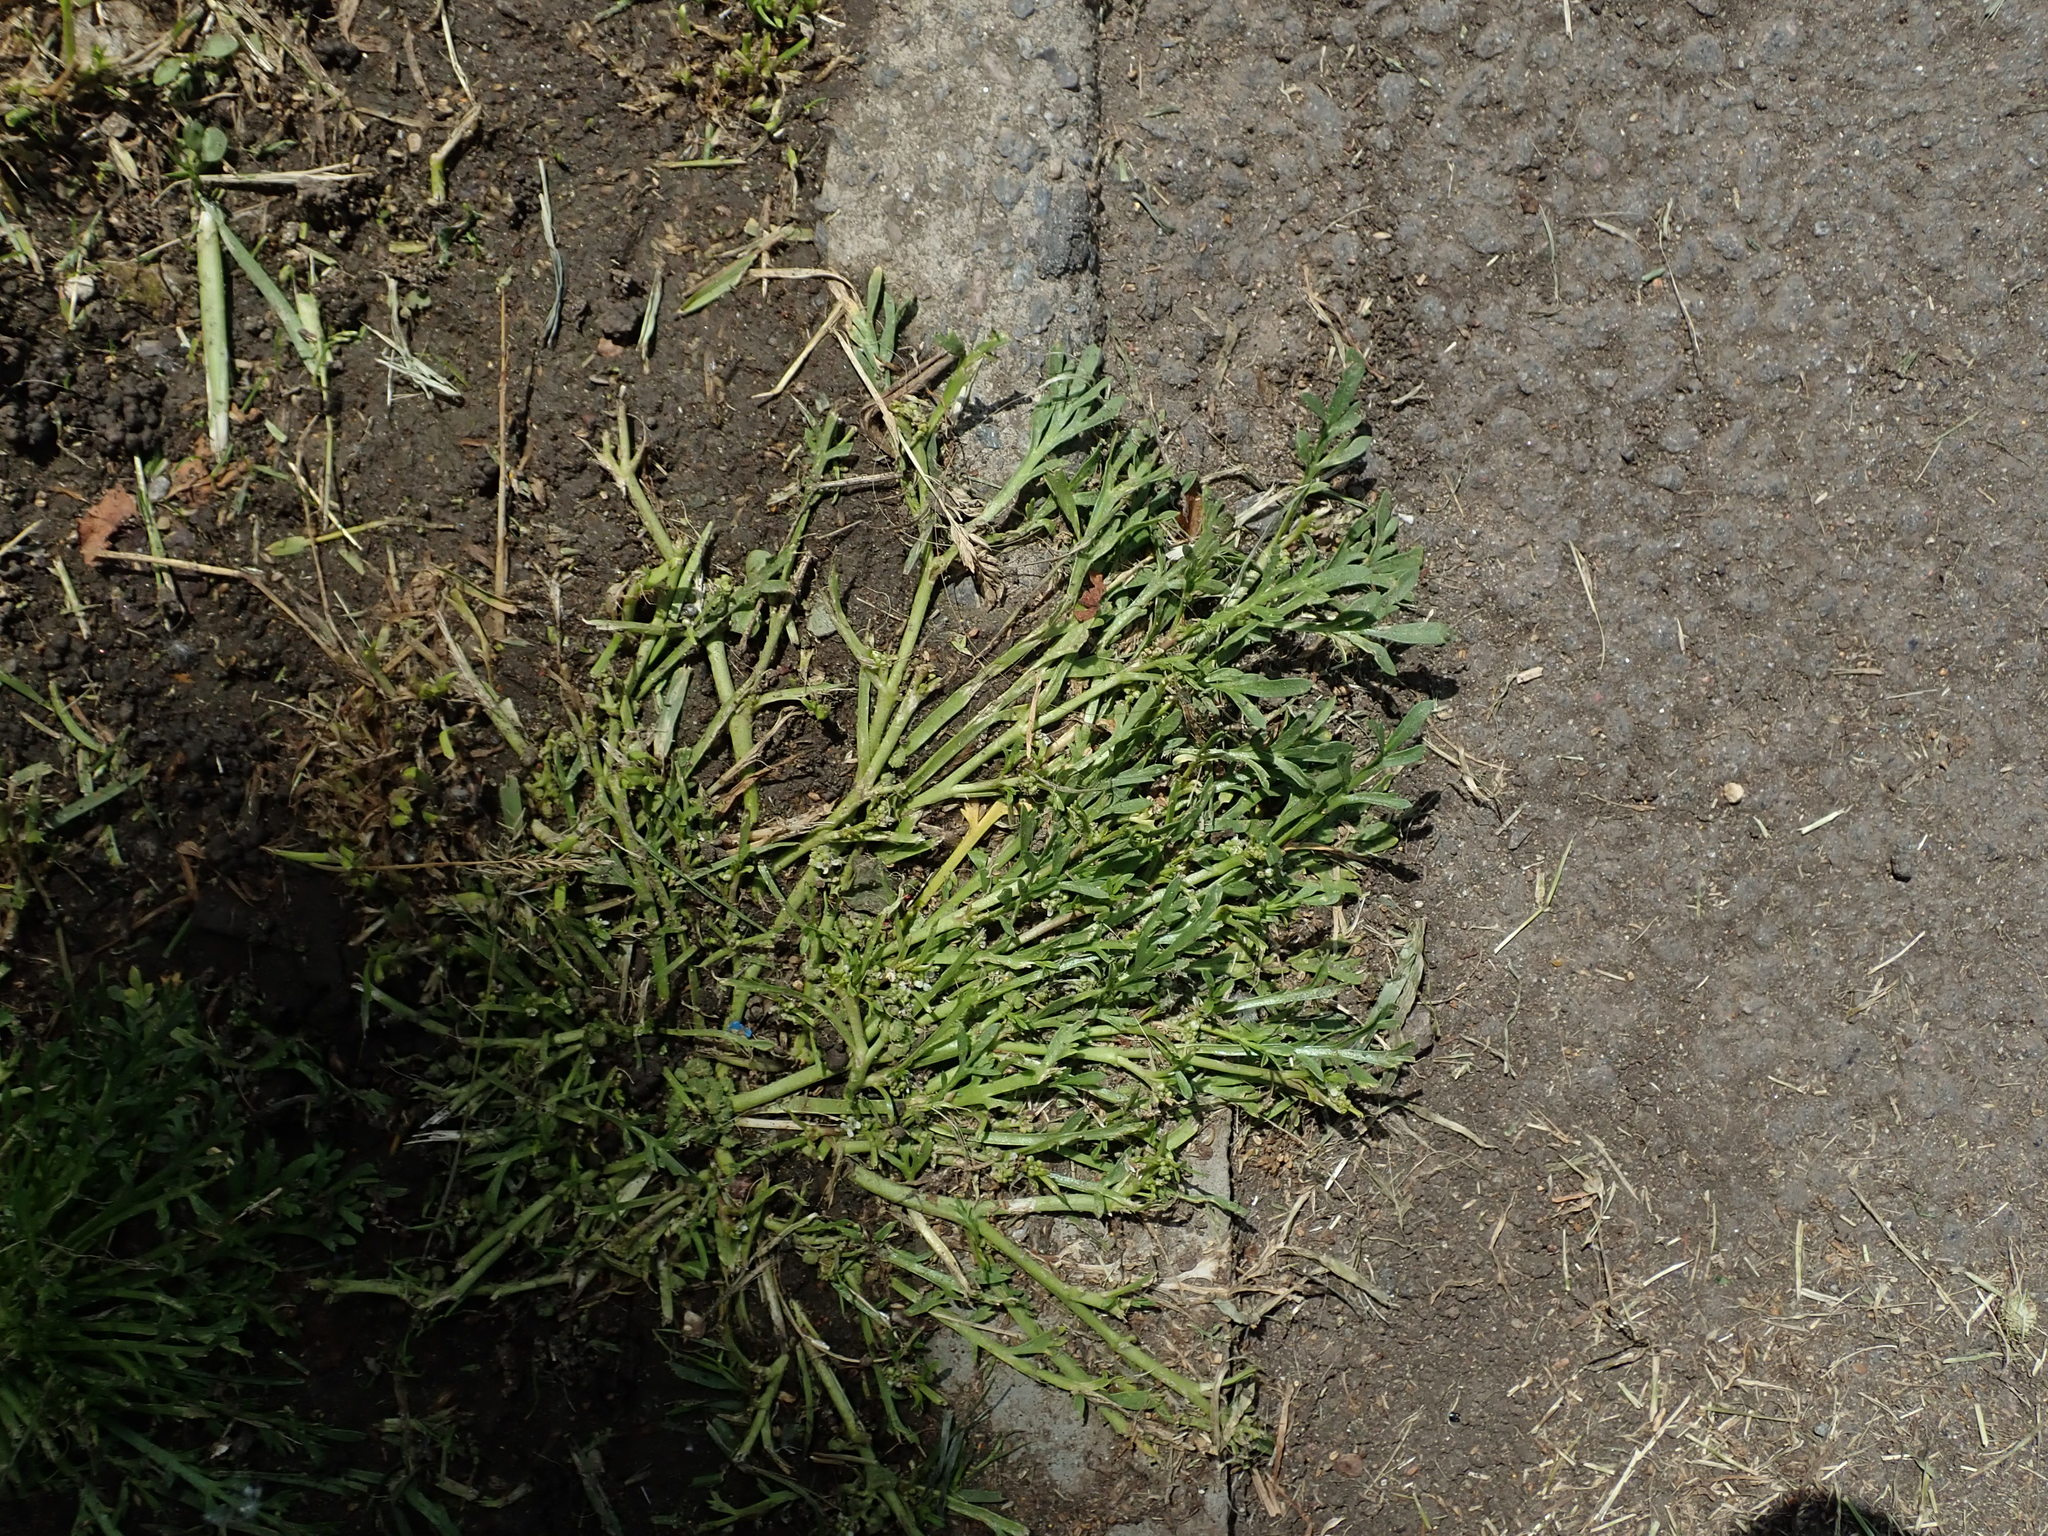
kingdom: Plantae
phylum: Tracheophyta
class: Magnoliopsida
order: Brassicales
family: Brassicaceae
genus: Lepidium
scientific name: Lepidium coronopus
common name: Greater swinecress
